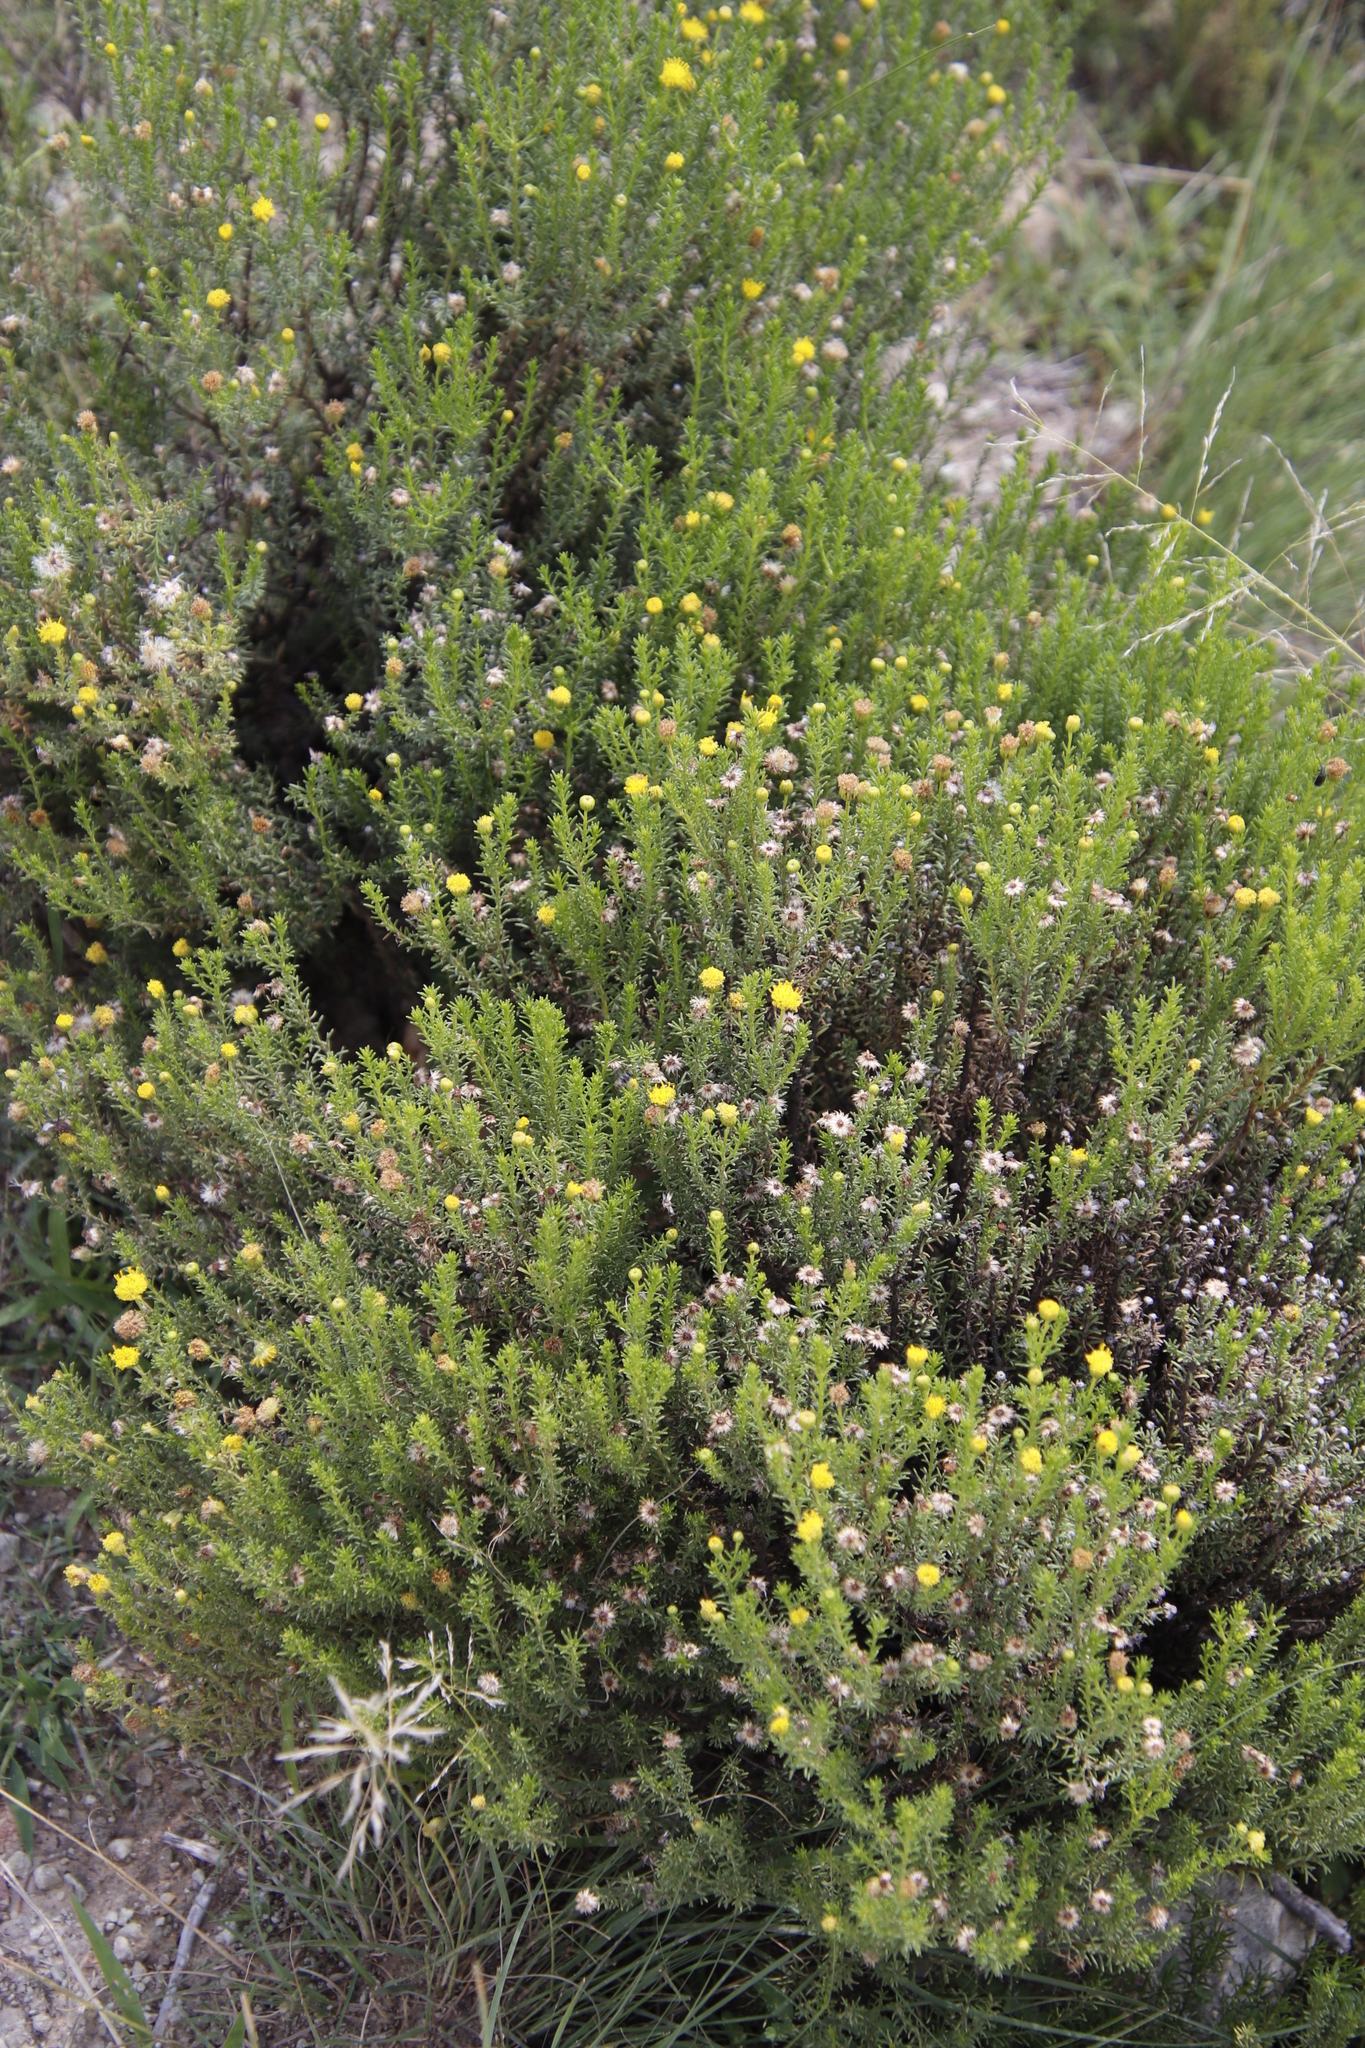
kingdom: Plantae
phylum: Tracheophyta
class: Magnoliopsida
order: Asterales
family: Asteraceae
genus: Chrysocoma
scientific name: Chrysocoma ciliata
